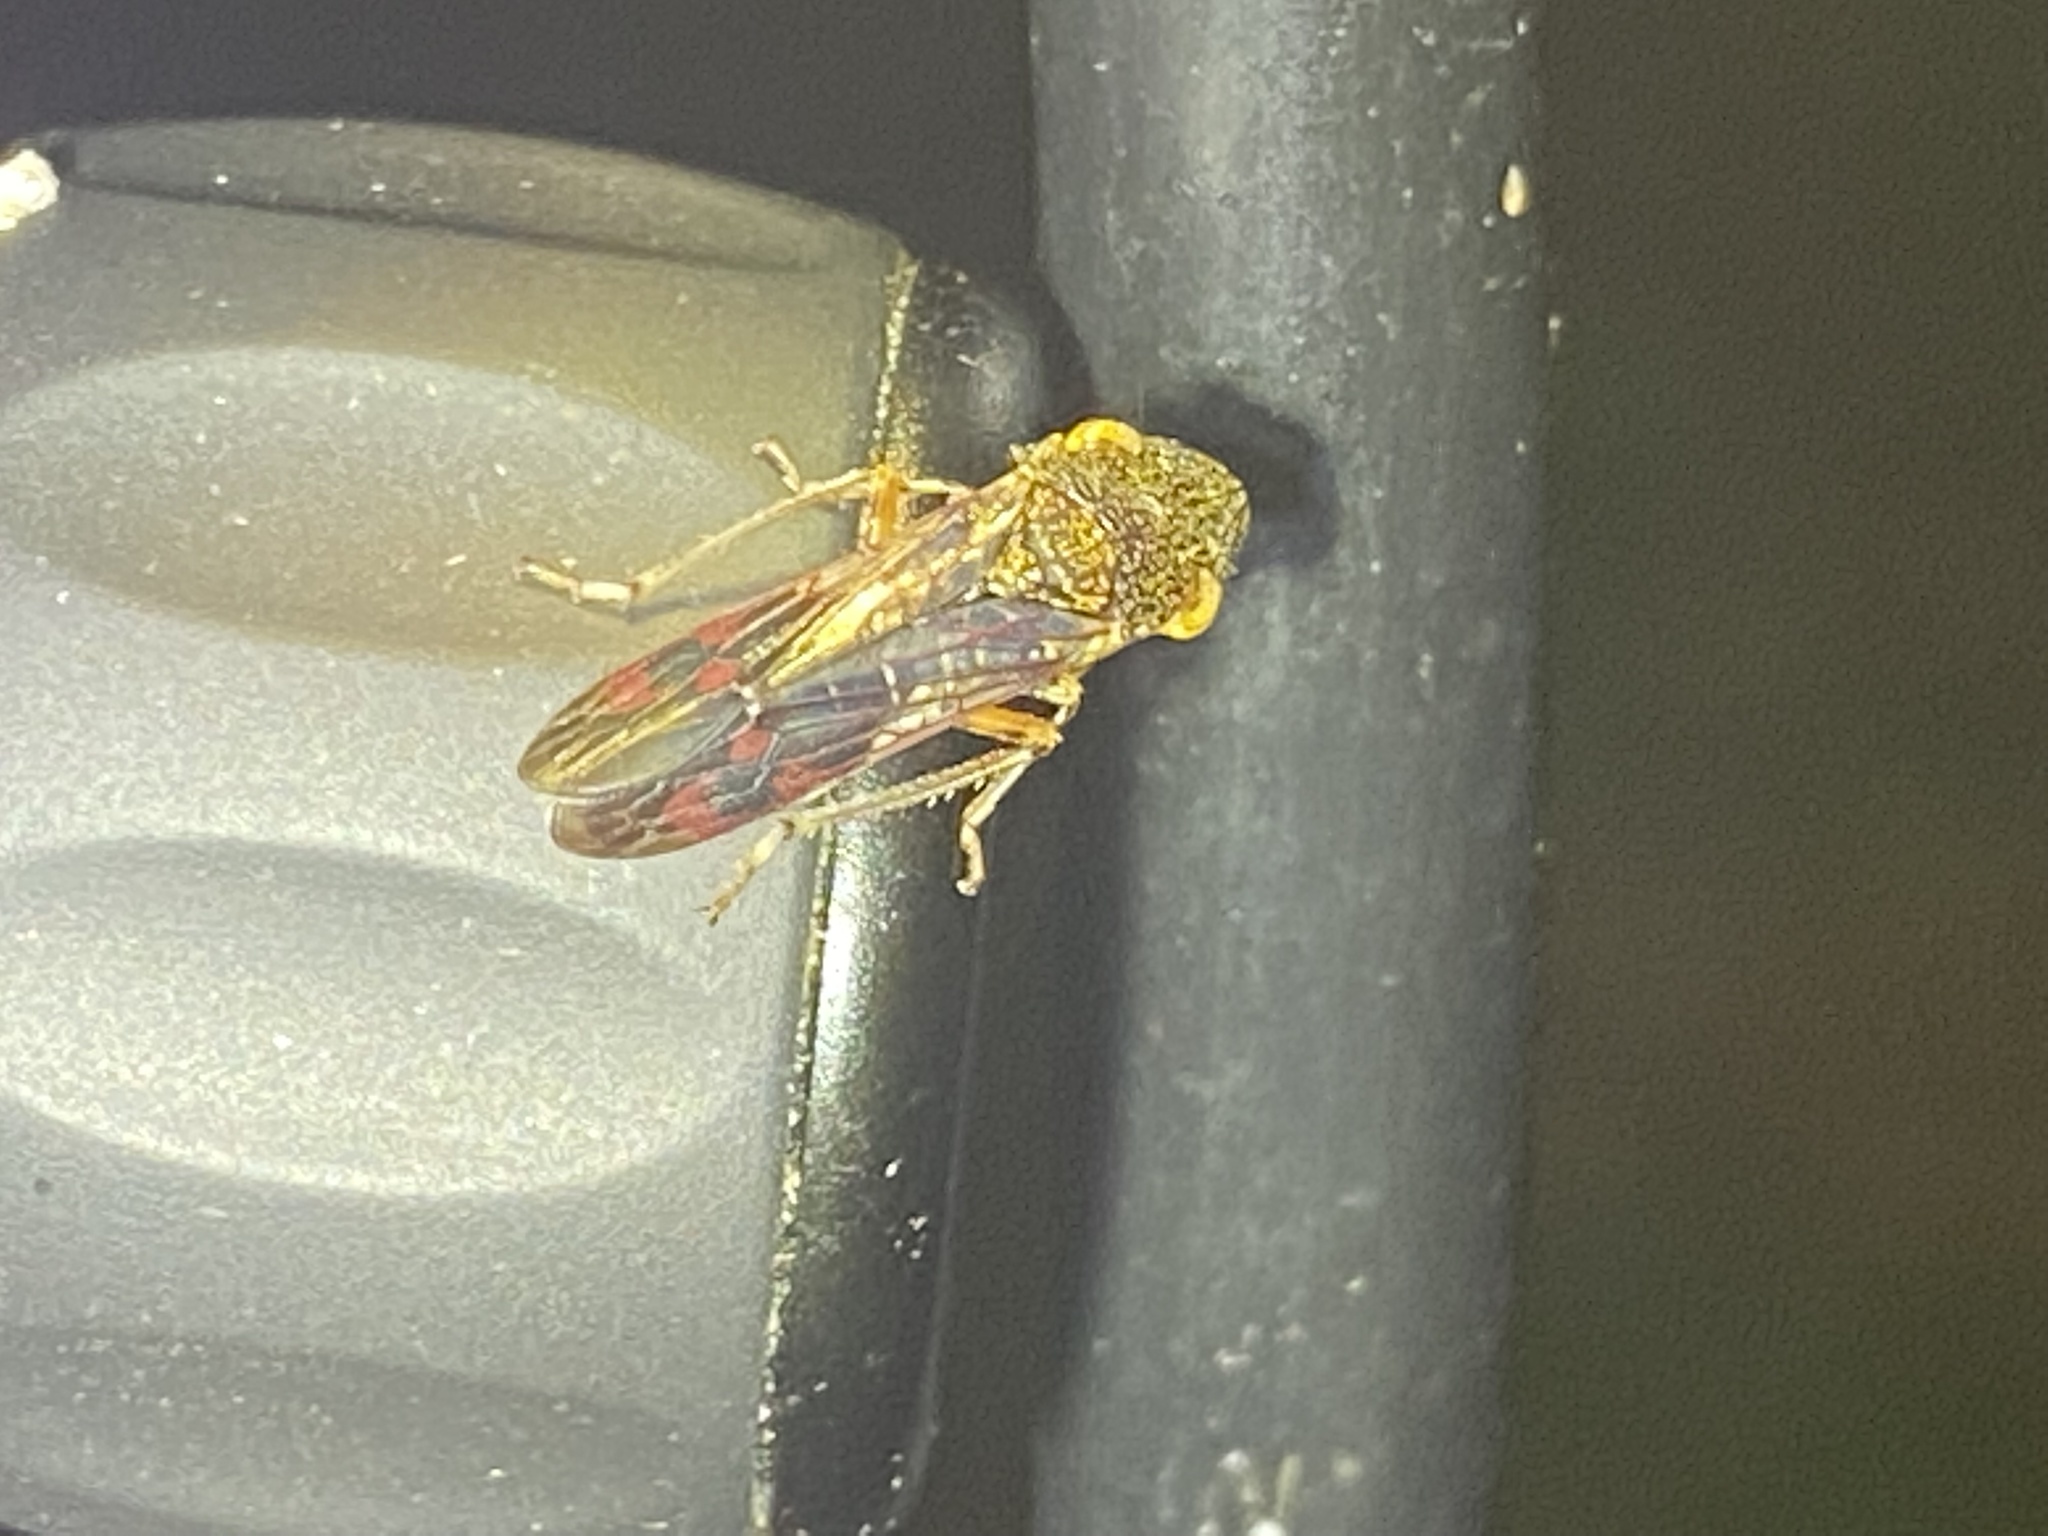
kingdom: Animalia
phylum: Arthropoda
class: Insecta
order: Hemiptera
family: Cicadellidae
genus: Homalodisca
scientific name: Homalodisca vitripennis
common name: Glassy-winged sharpshooter
